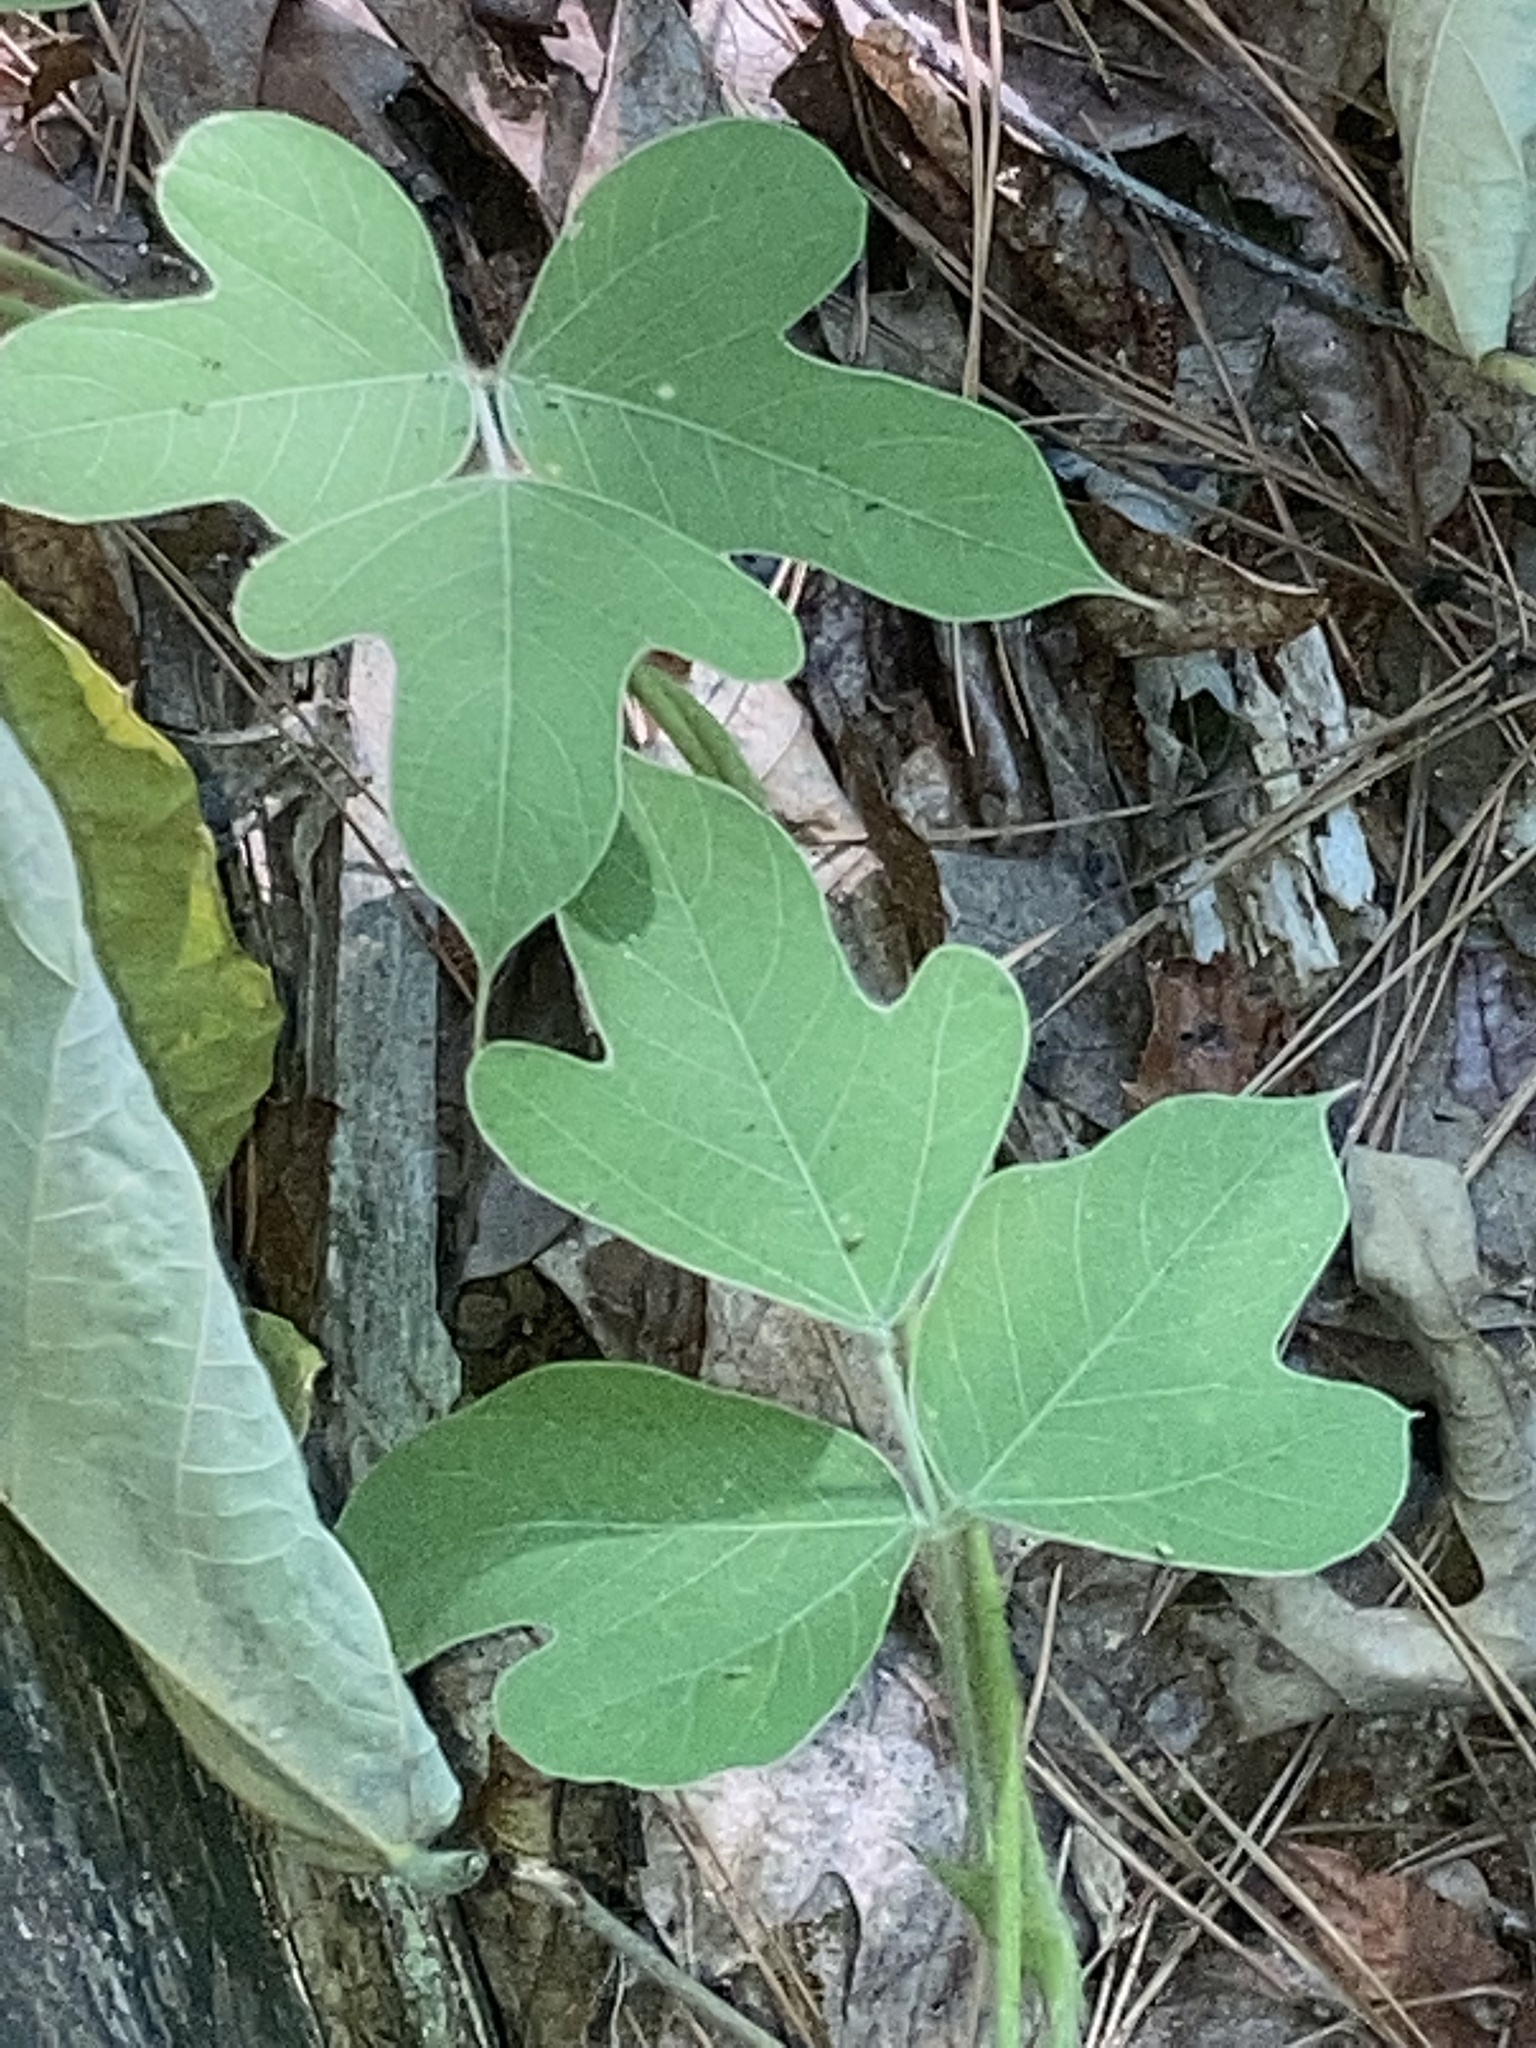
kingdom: Plantae
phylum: Tracheophyta
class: Magnoliopsida
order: Fabales
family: Fabaceae
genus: Pueraria
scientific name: Pueraria montana
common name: Kudzu
